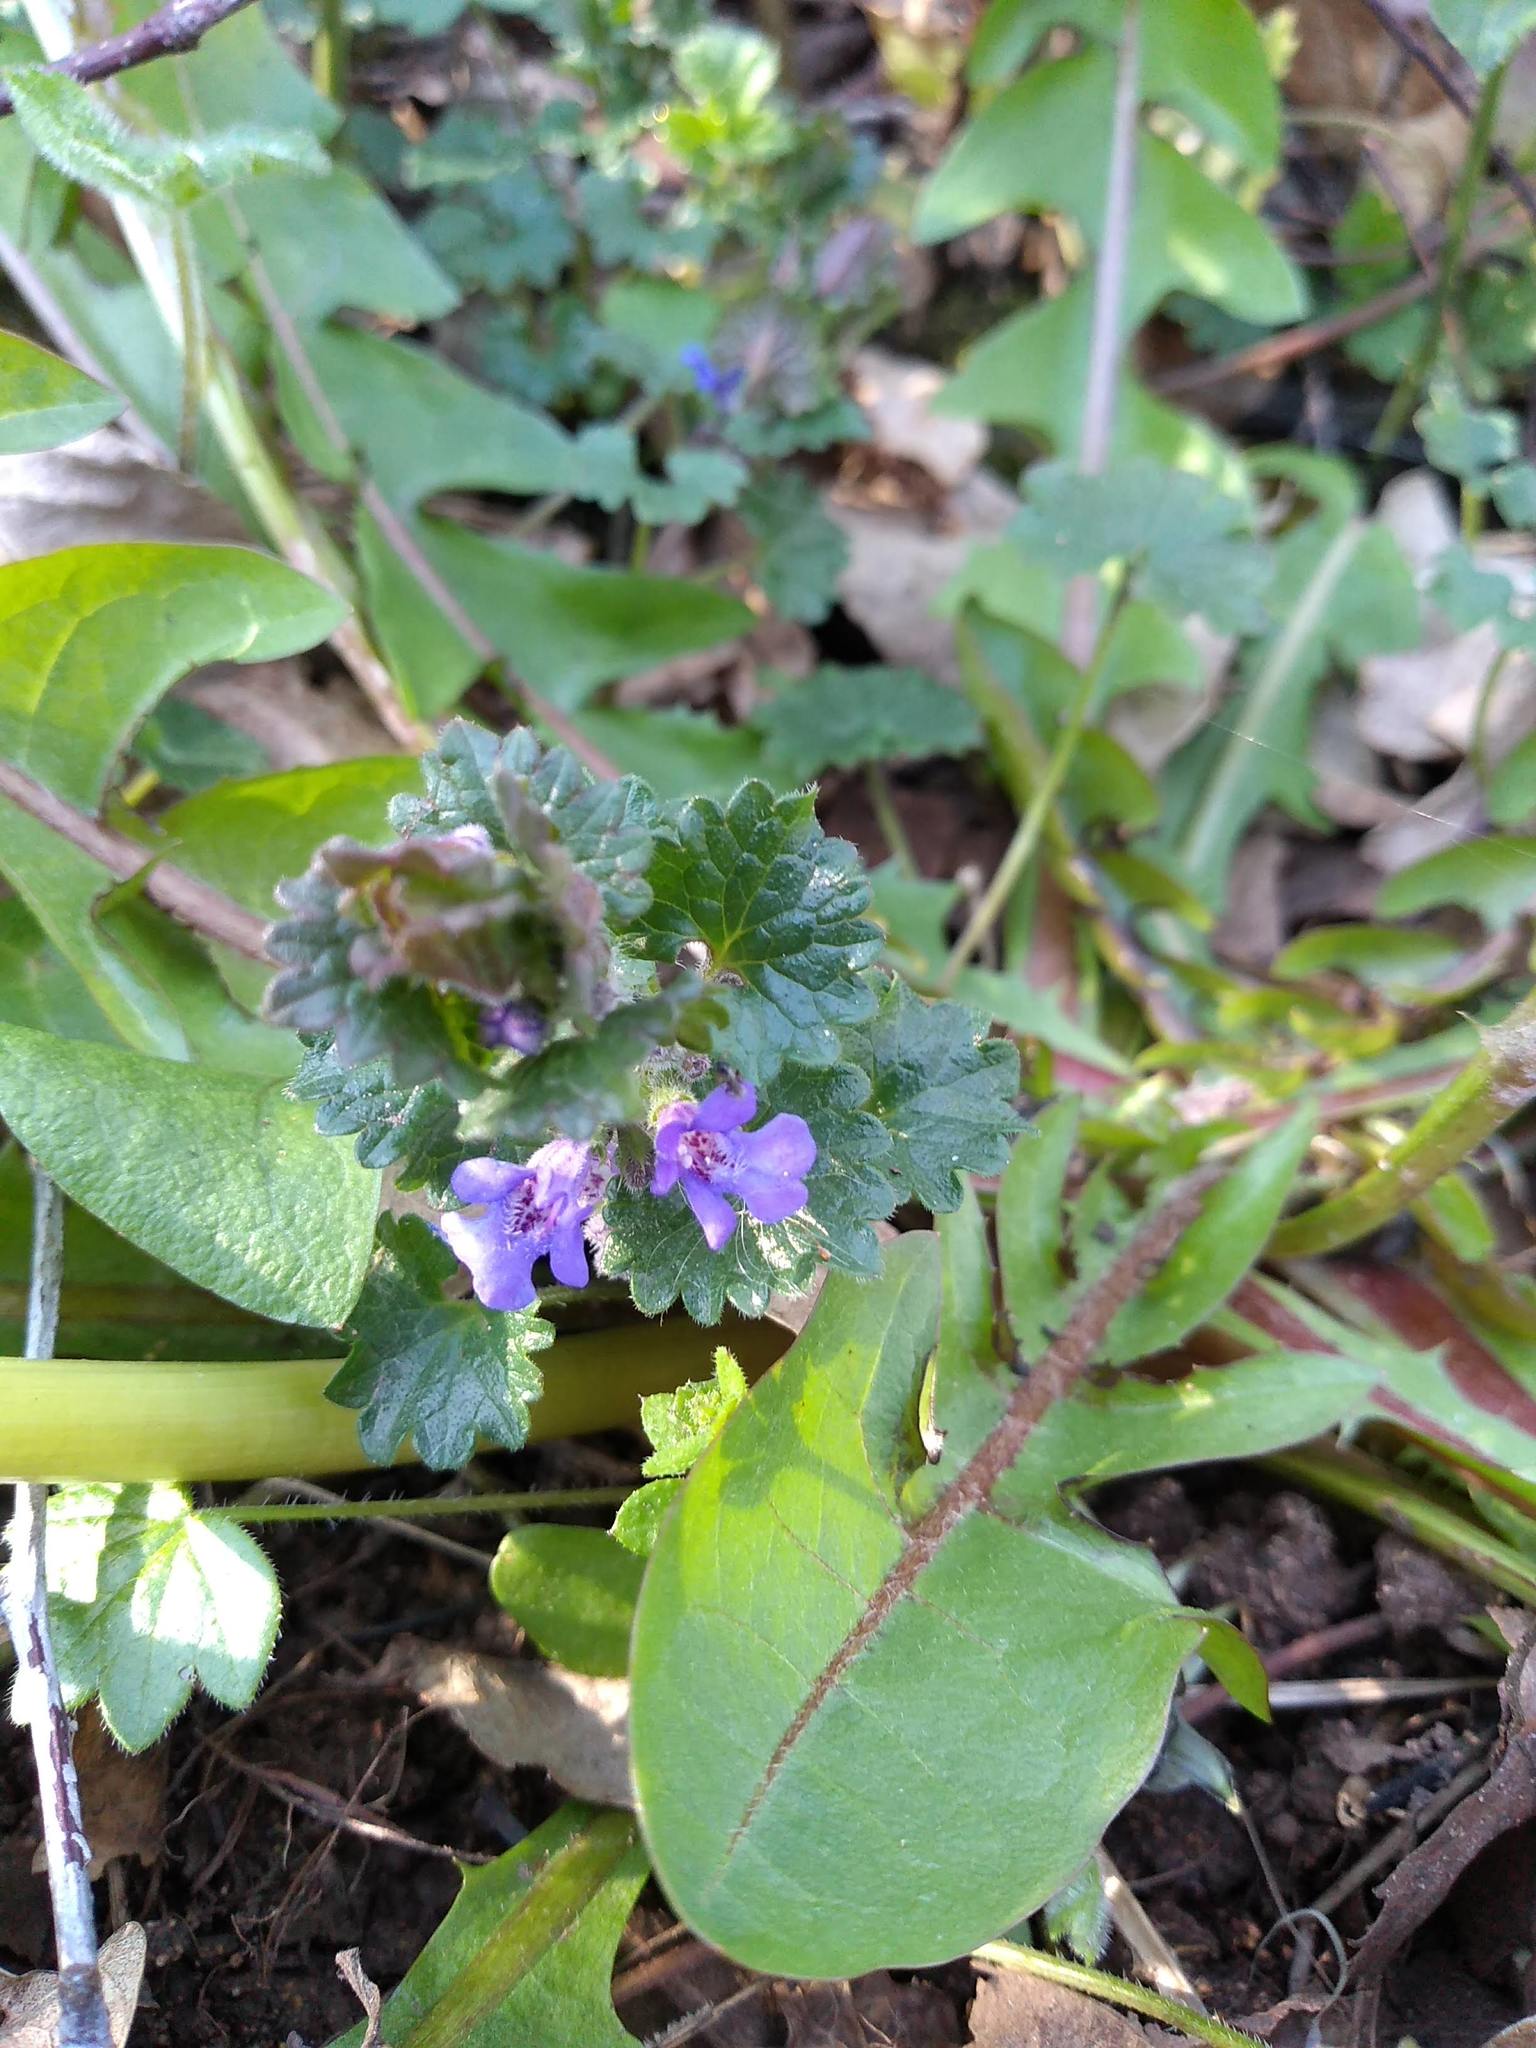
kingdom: Plantae
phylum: Tracheophyta
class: Magnoliopsida
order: Lamiales
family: Lamiaceae
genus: Glechoma
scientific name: Glechoma hederacea
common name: Ground ivy
